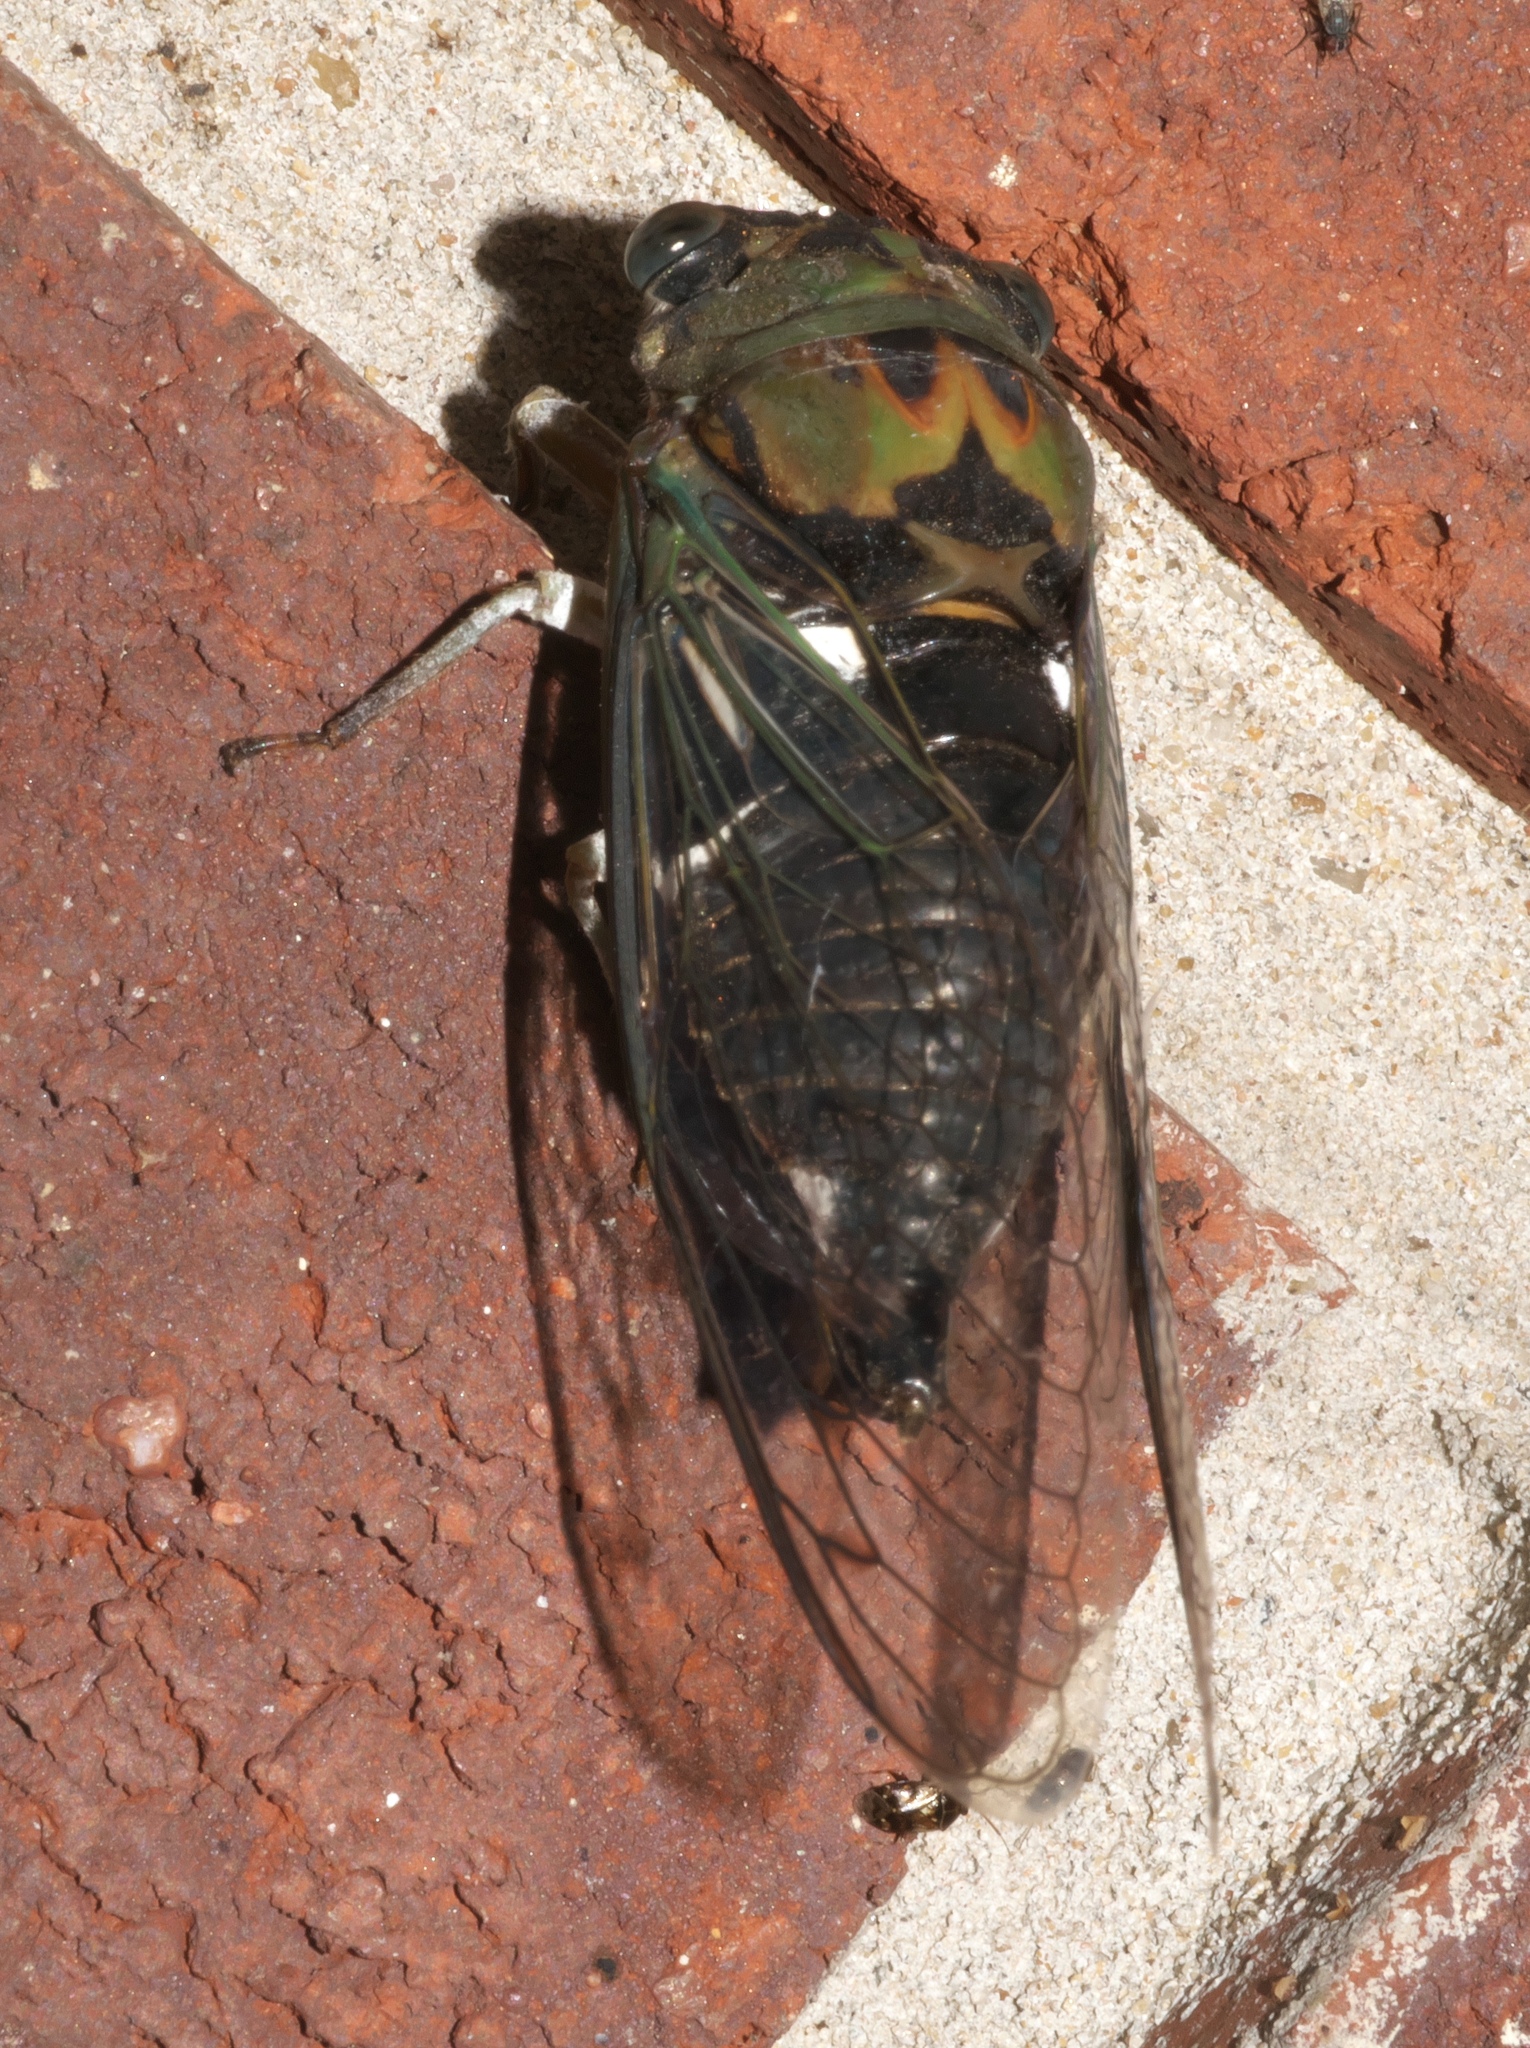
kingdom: Animalia
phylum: Arthropoda
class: Insecta
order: Hemiptera
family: Cicadidae
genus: Neotibicen
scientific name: Neotibicen pruinosus
